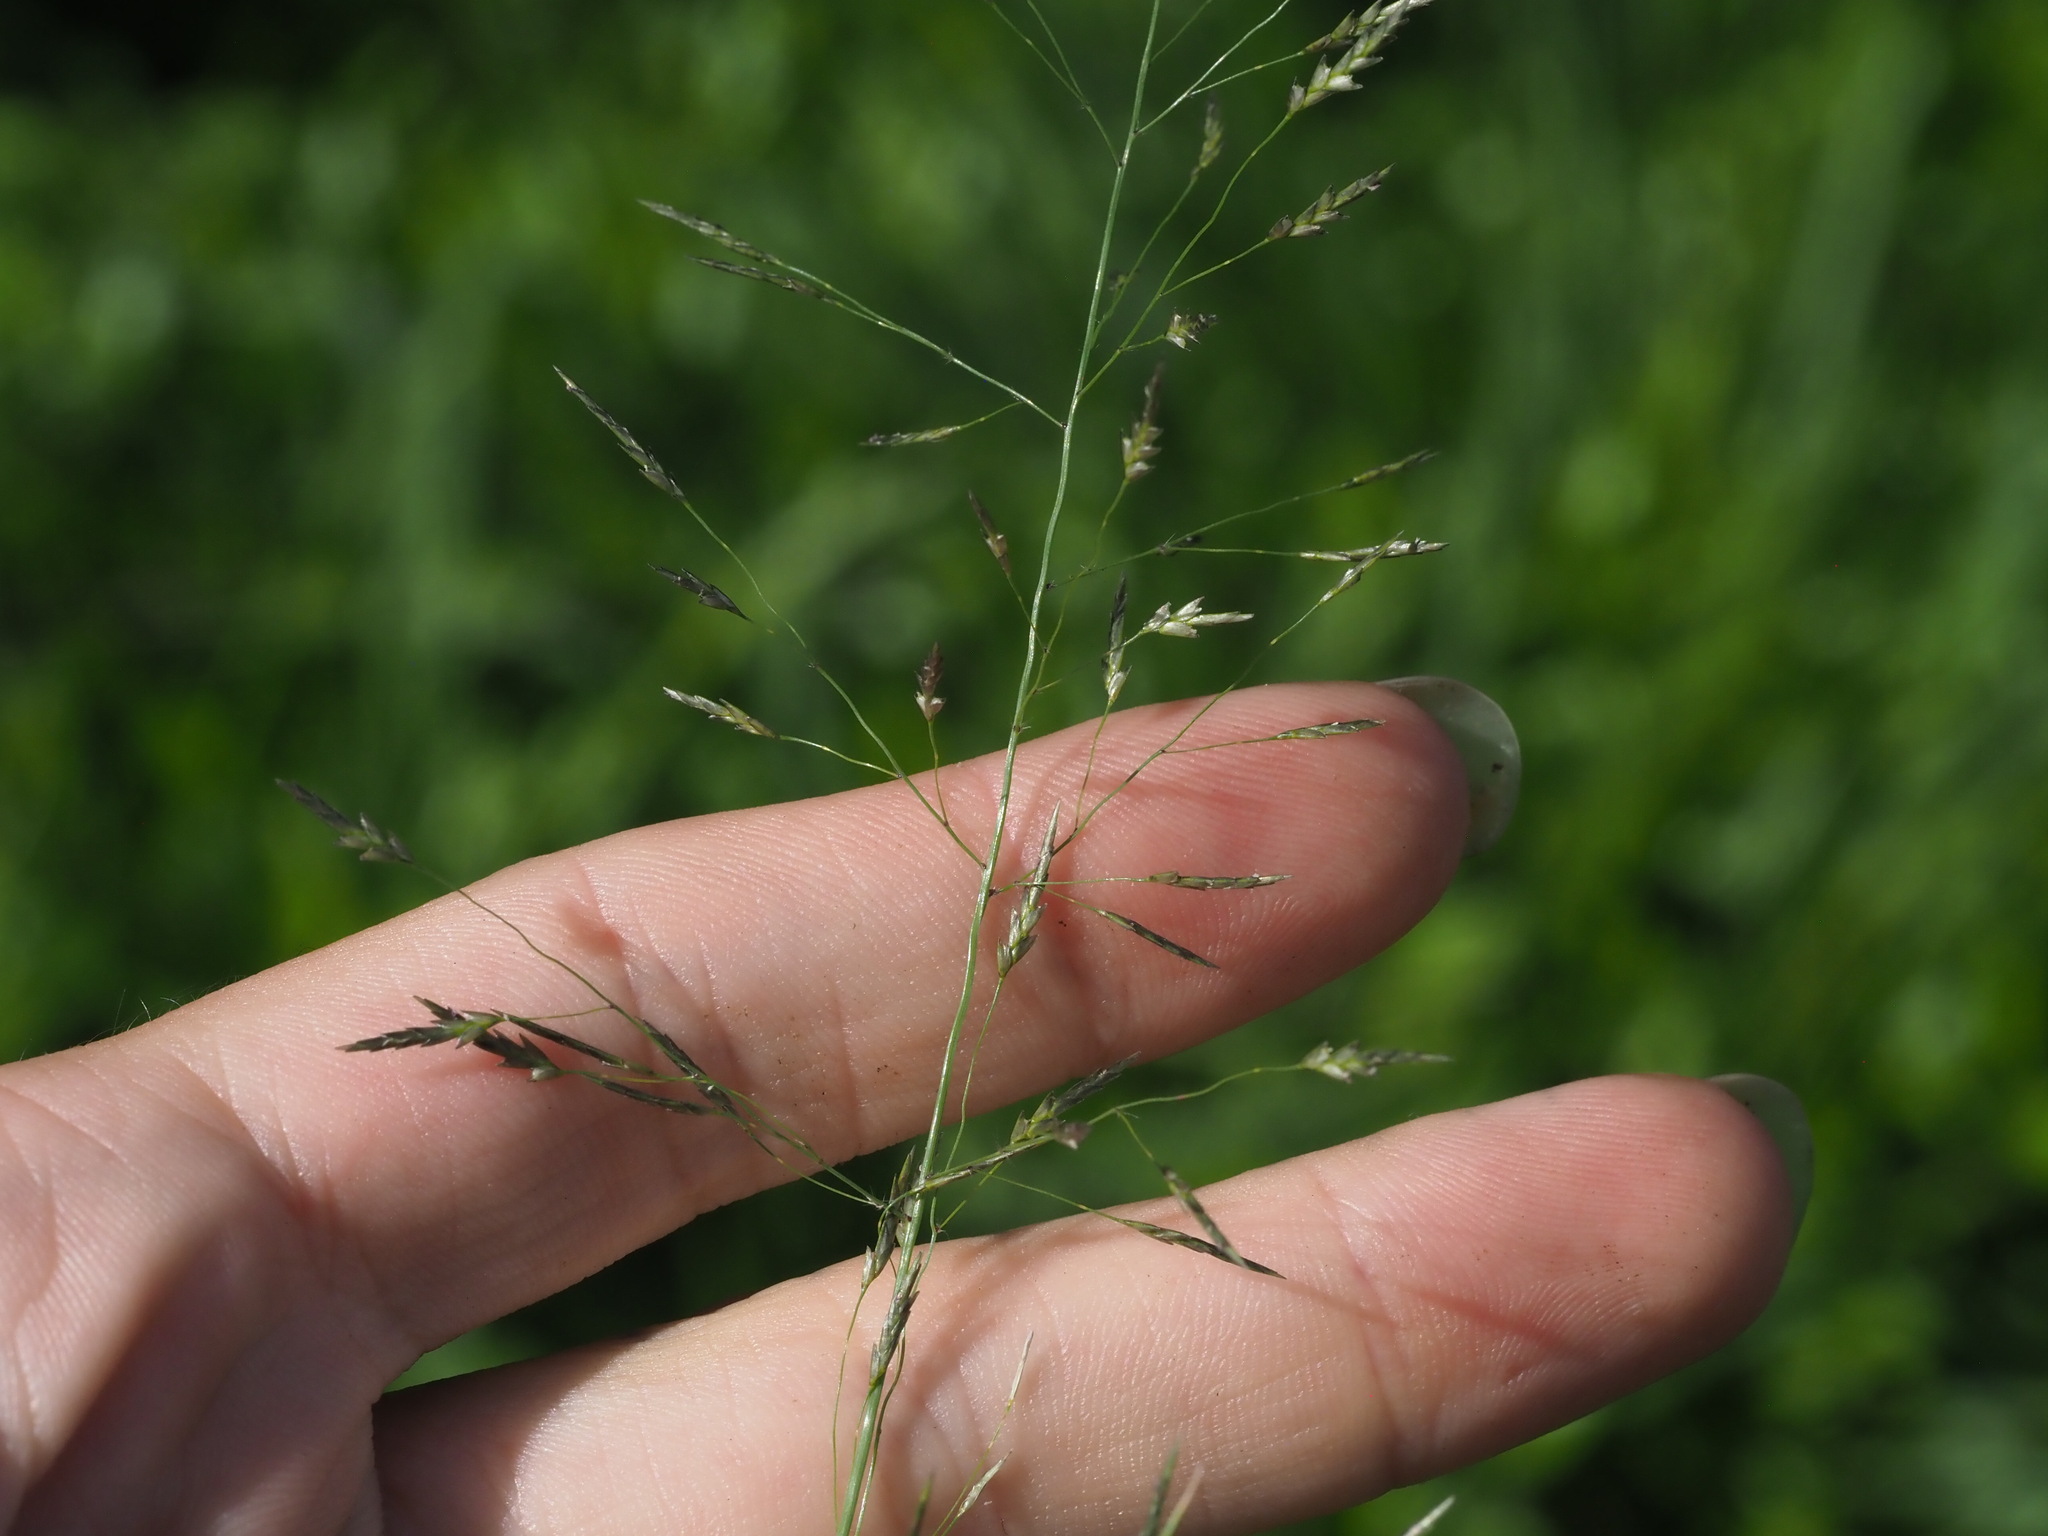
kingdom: Plantae
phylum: Tracheophyta
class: Liliopsida
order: Poales
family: Poaceae
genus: Eragrostis
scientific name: Eragrostis tenuifolia
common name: Elastic grass
